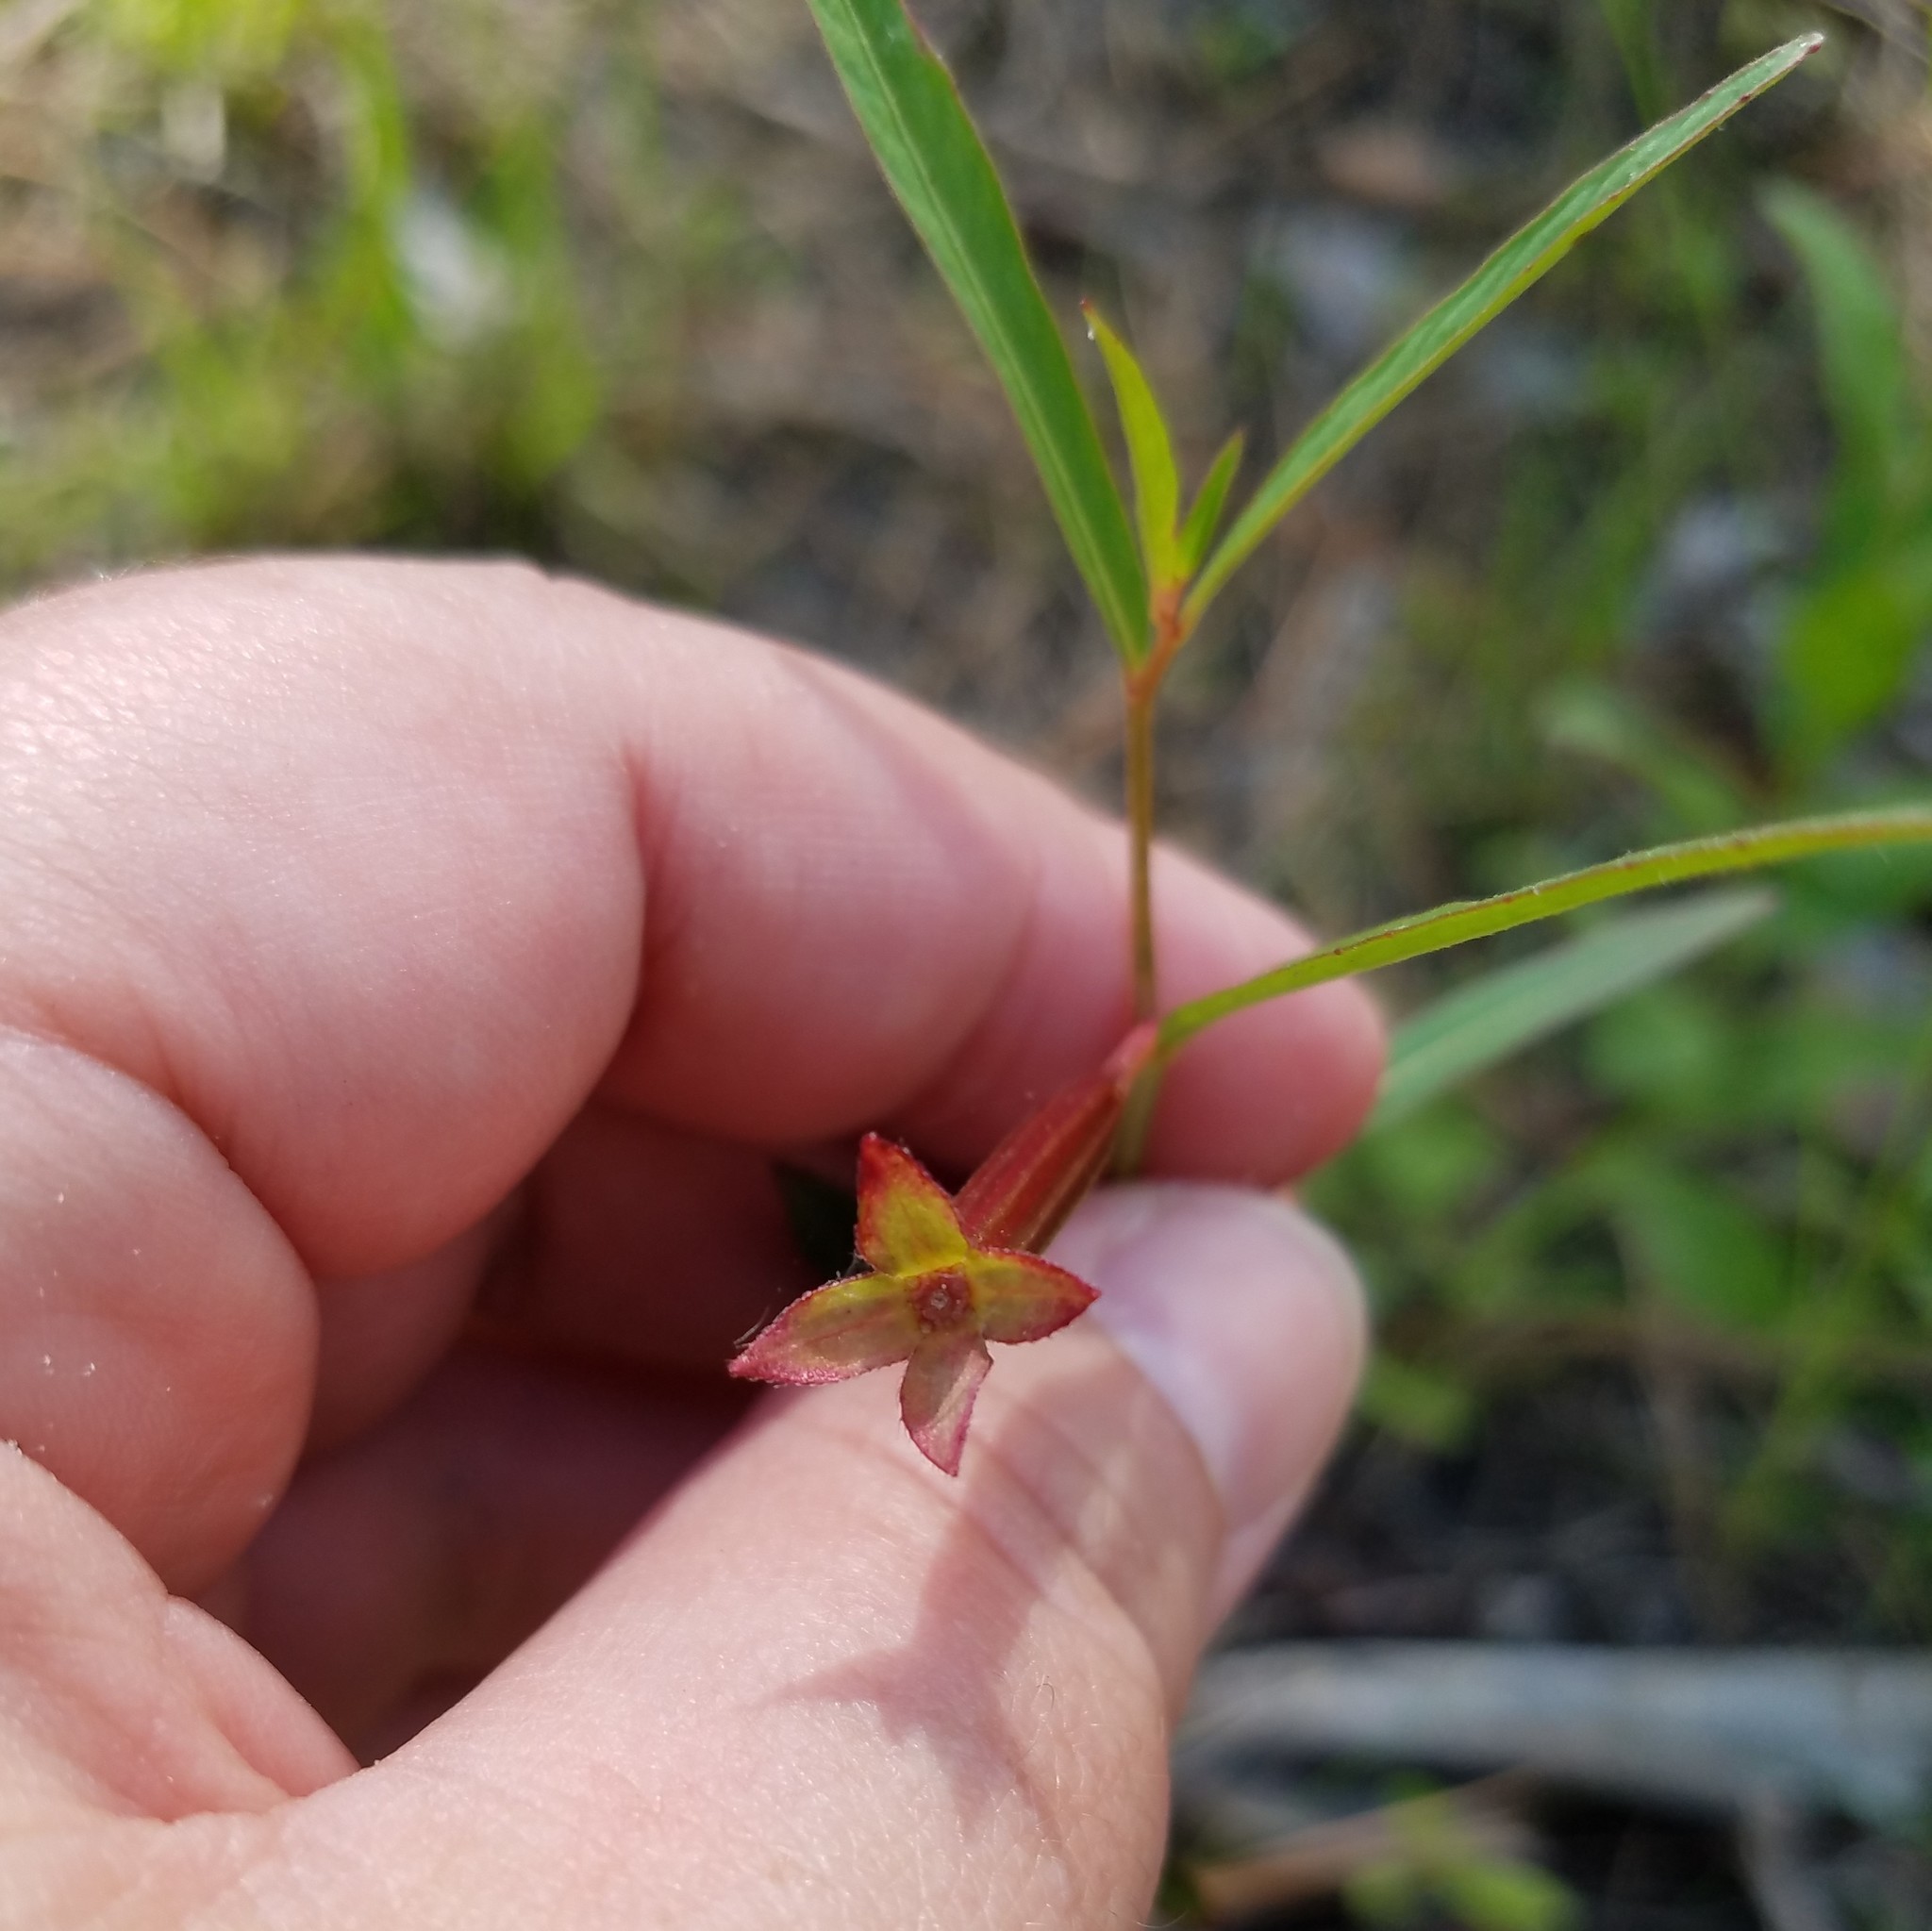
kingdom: Plantae
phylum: Tracheophyta
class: Magnoliopsida
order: Myrtales
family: Onagraceae
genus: Ludwigia
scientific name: Ludwigia leptocarpa
